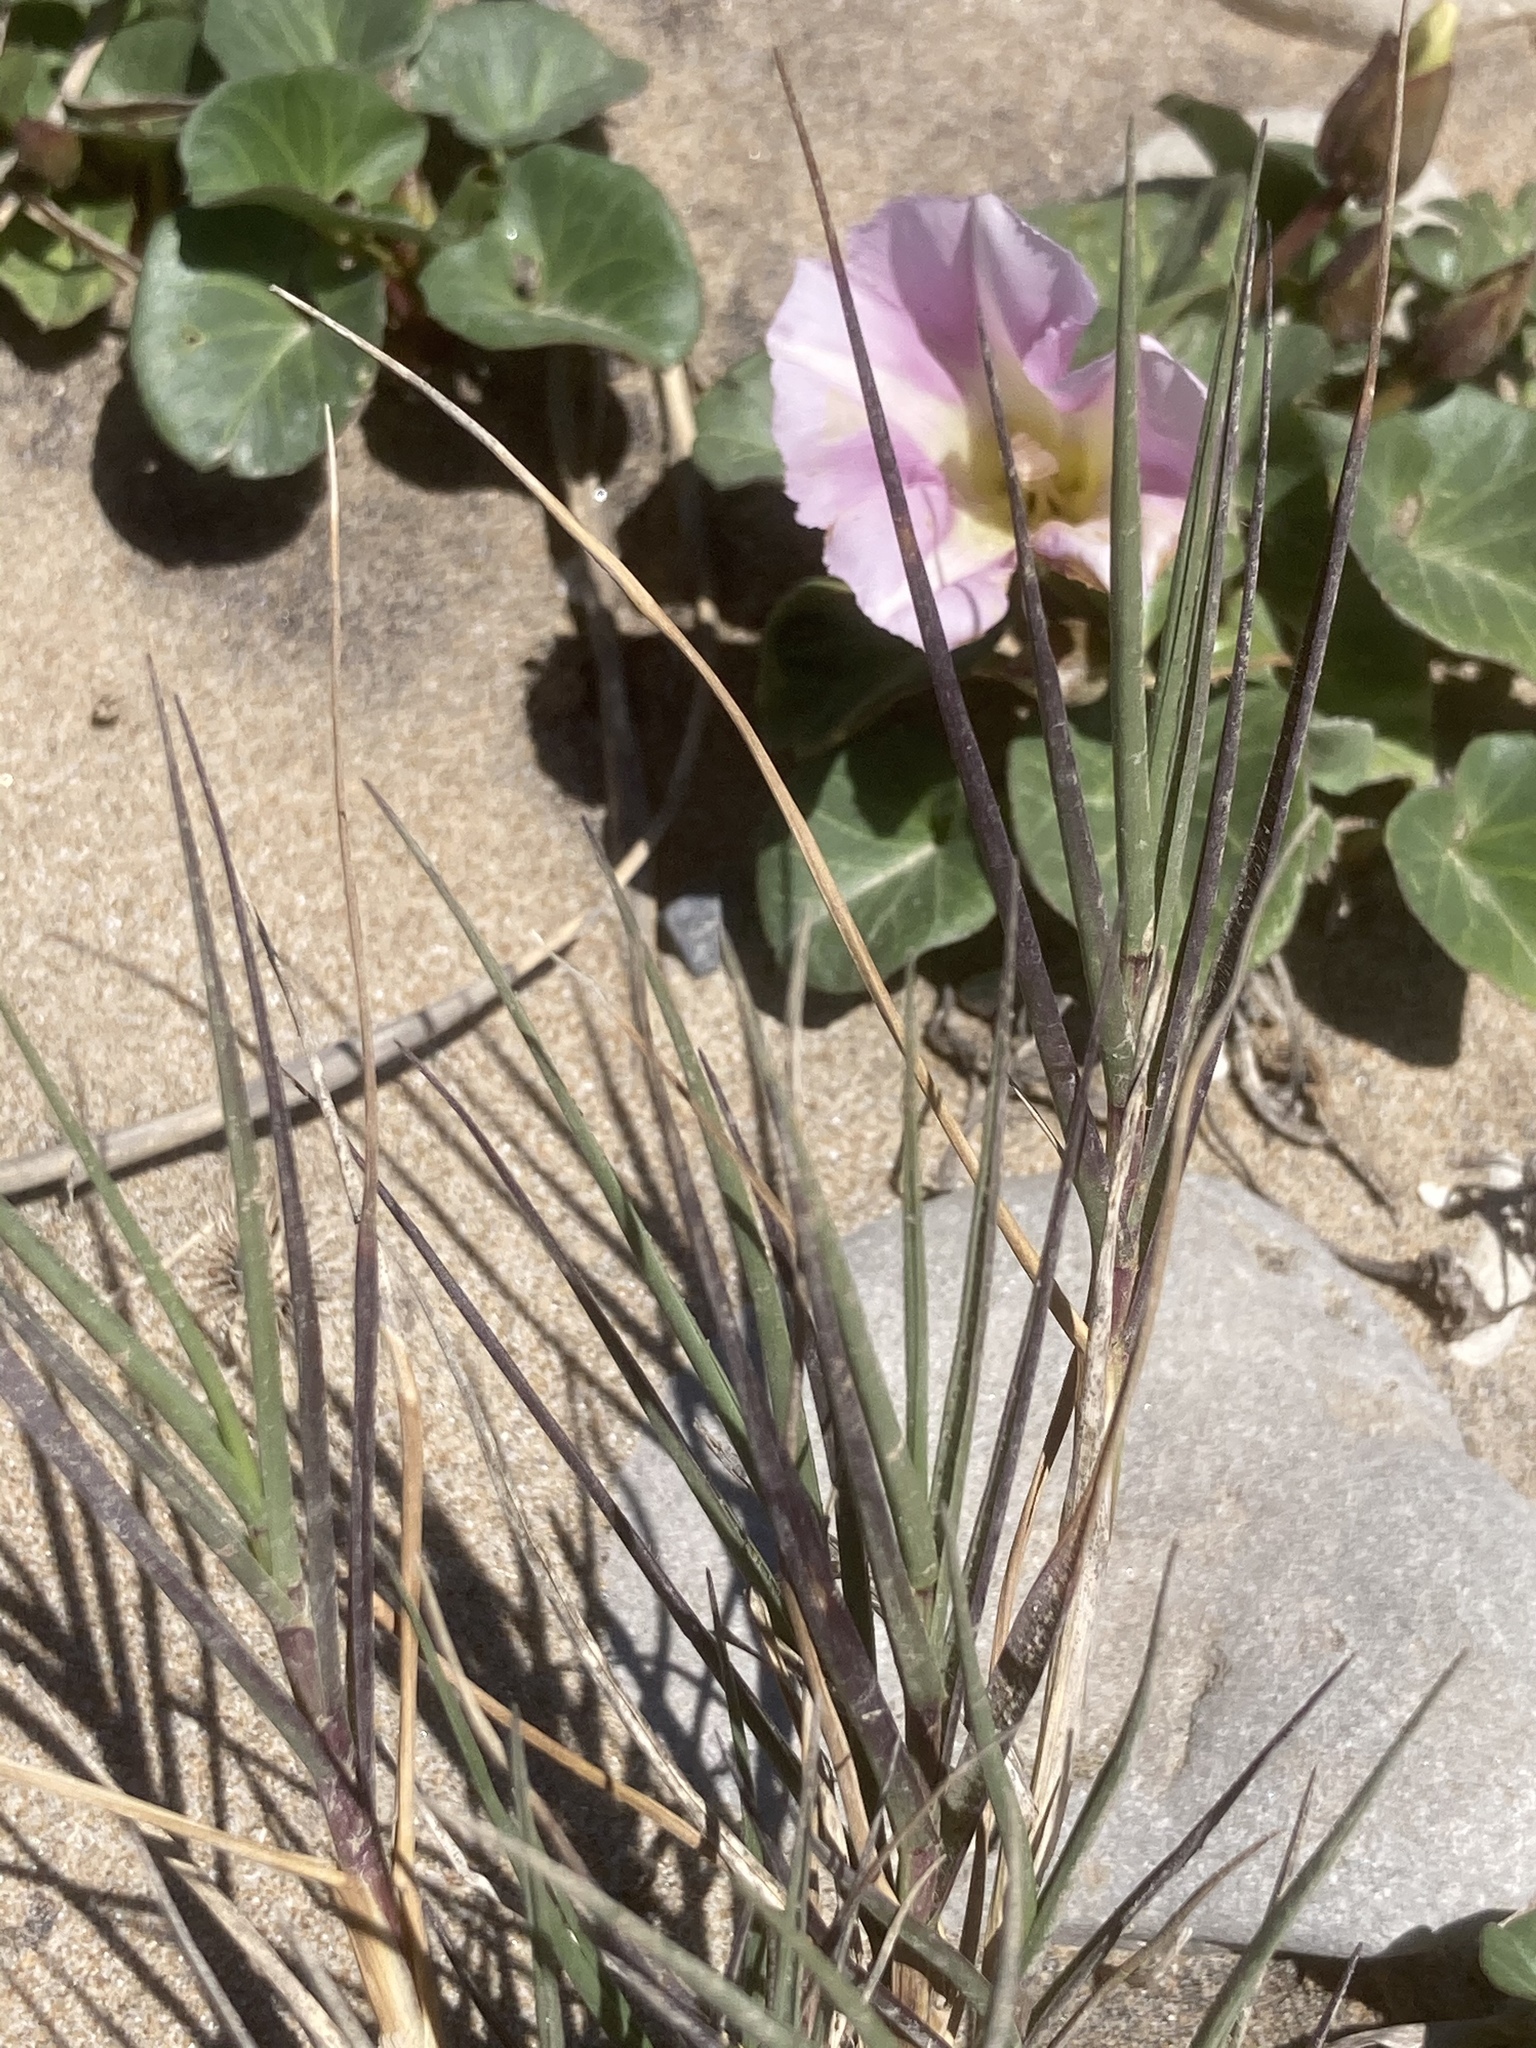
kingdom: Plantae
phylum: Tracheophyta
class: Magnoliopsida
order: Solanales
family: Convolvulaceae
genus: Calystegia
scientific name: Calystegia soldanella
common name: Sea bindweed
